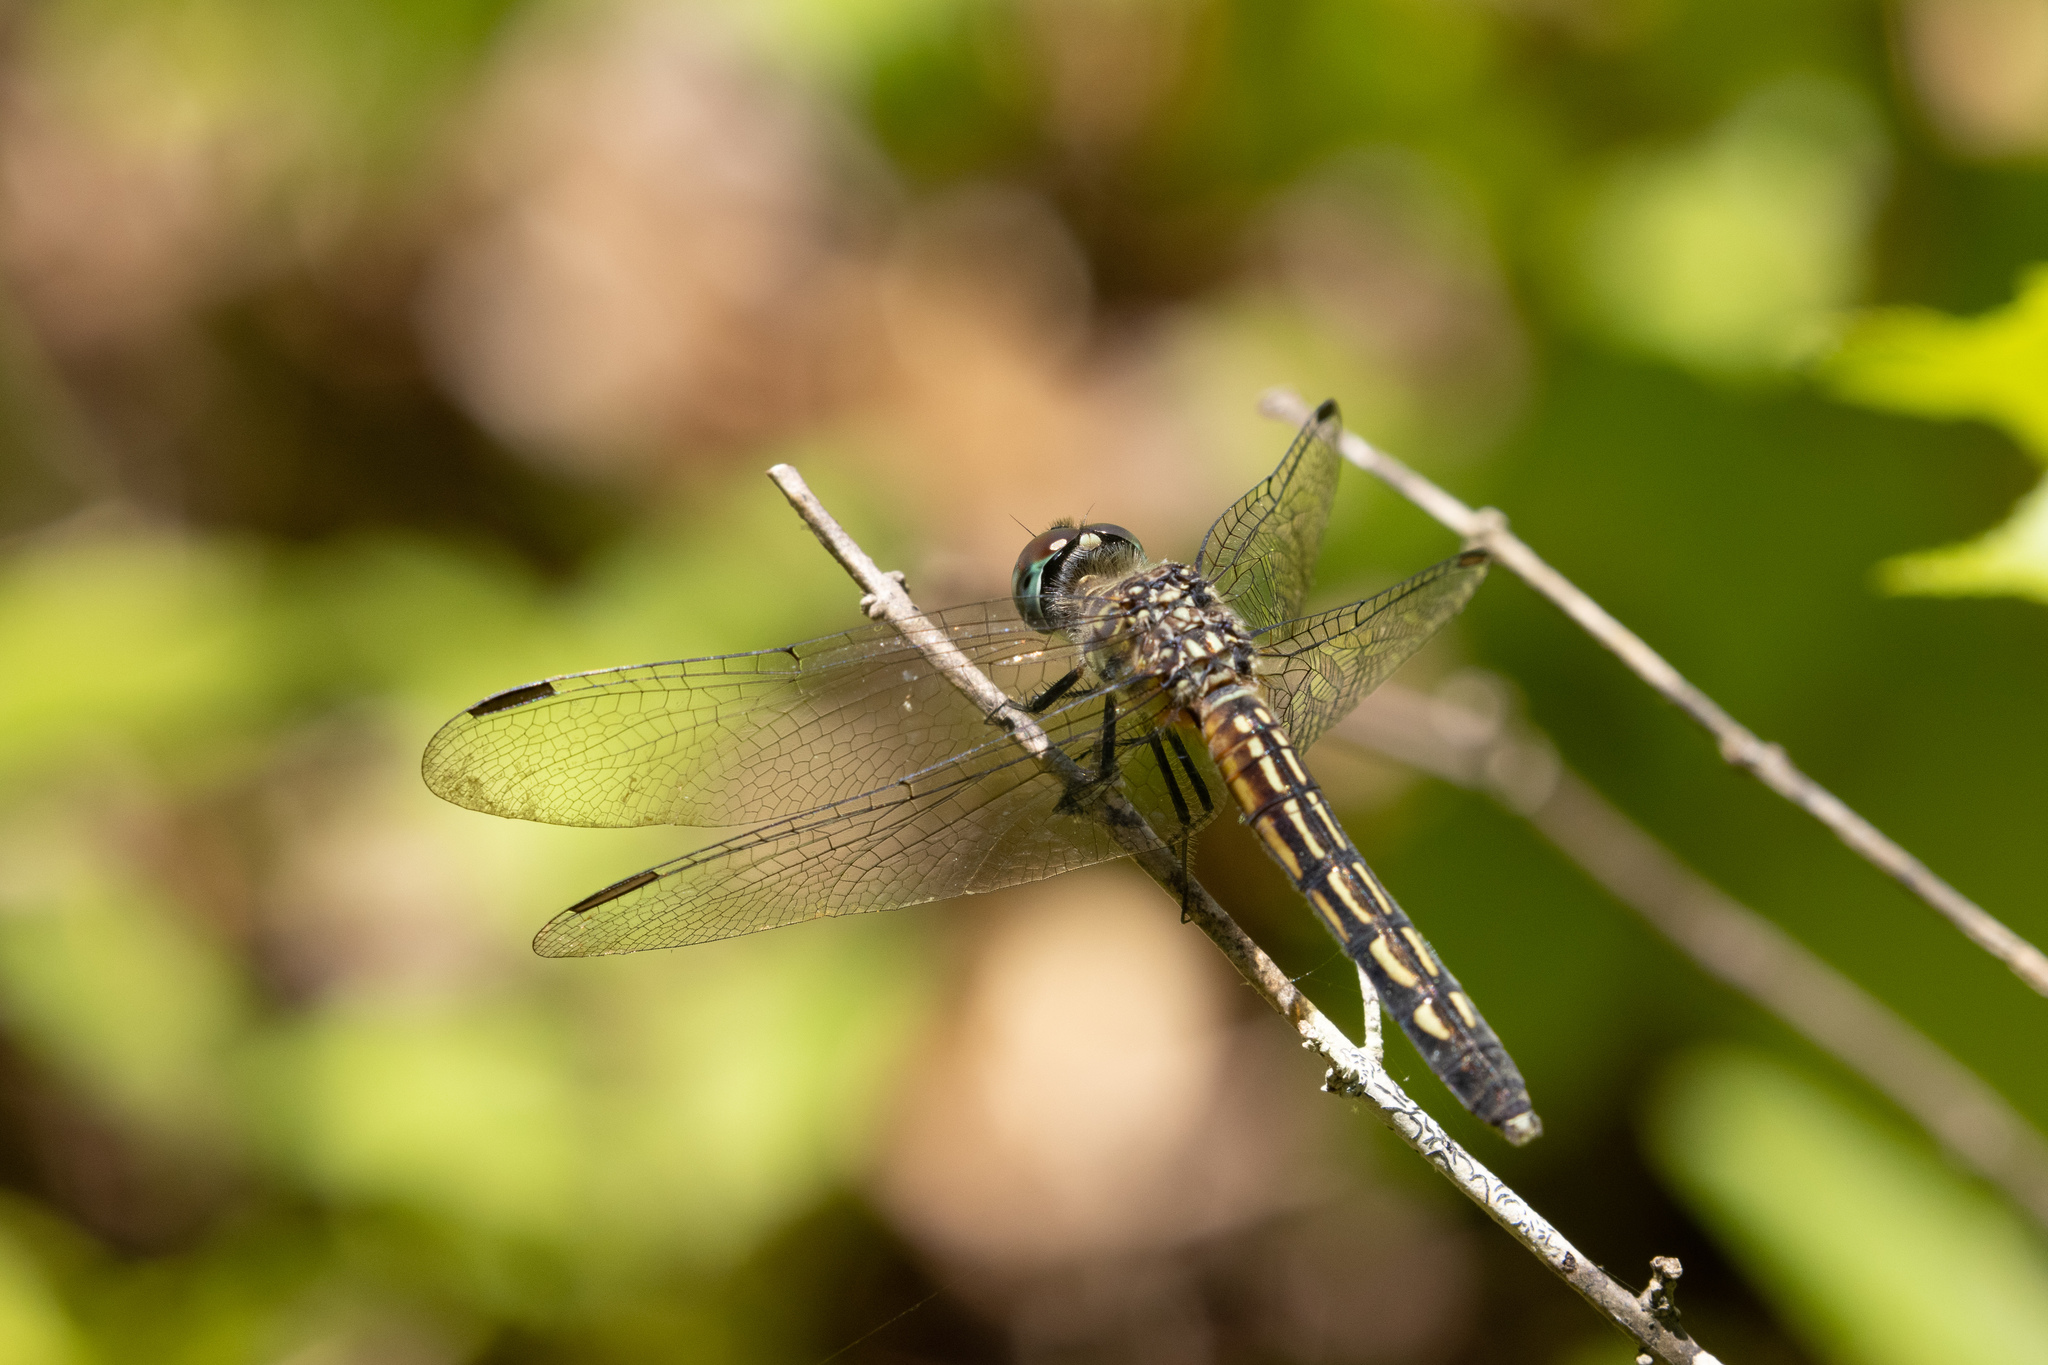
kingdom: Animalia
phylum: Arthropoda
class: Insecta
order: Odonata
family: Libellulidae
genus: Pachydiplax
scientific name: Pachydiplax longipennis
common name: Blue dasher
